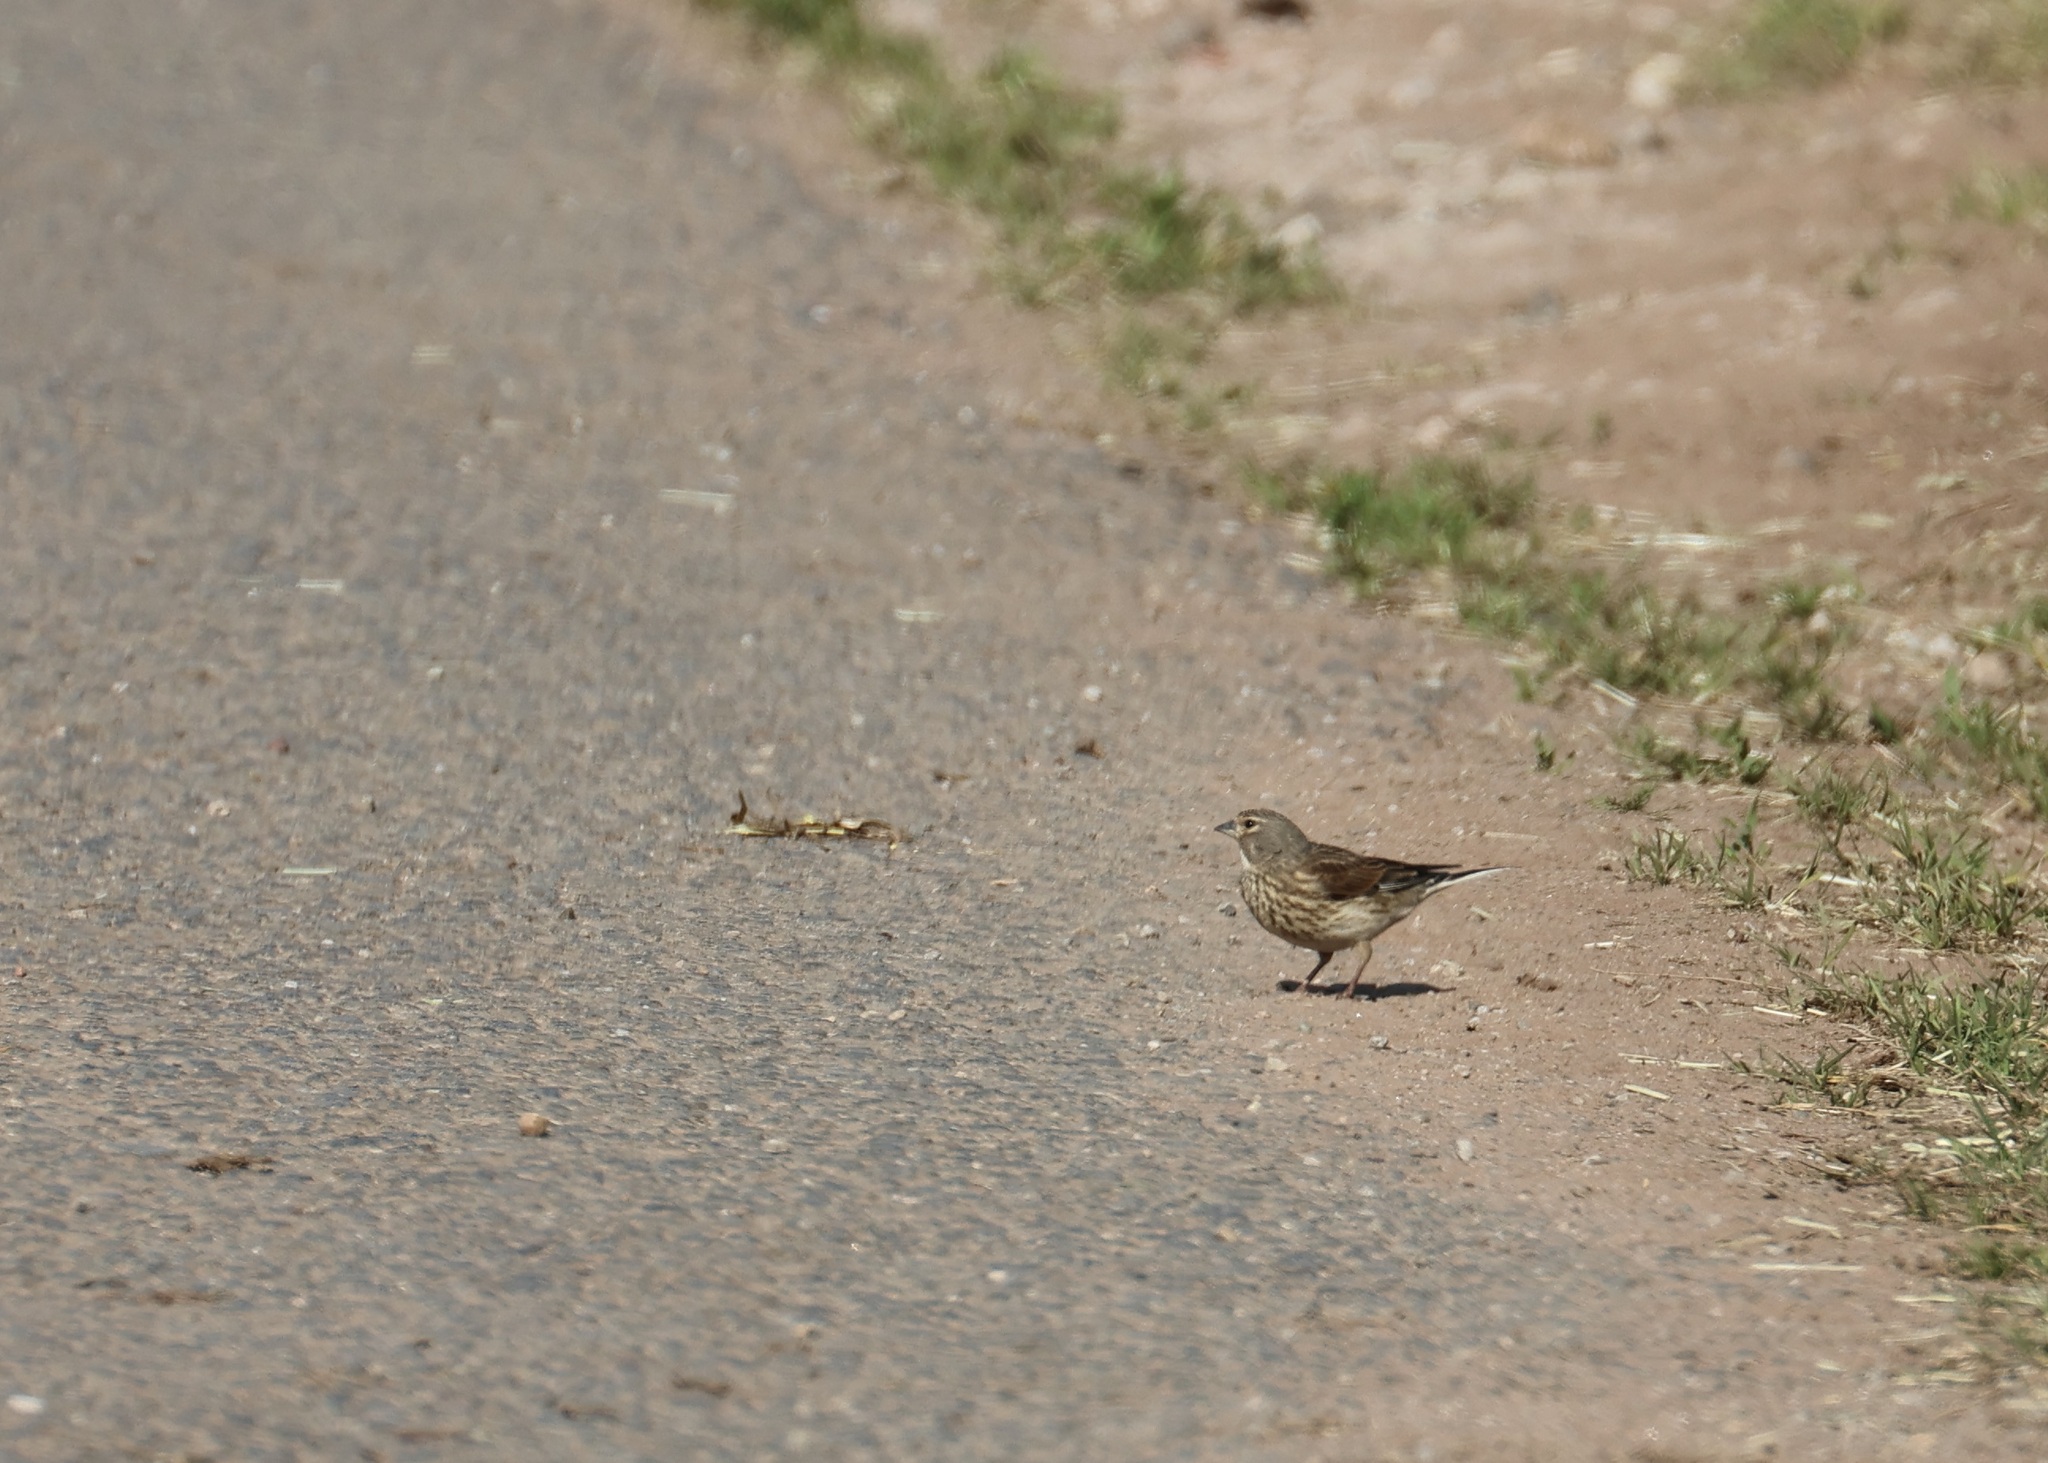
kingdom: Animalia
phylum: Chordata
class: Aves
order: Passeriformes
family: Fringillidae
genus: Linaria
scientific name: Linaria cannabina
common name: Common linnet
